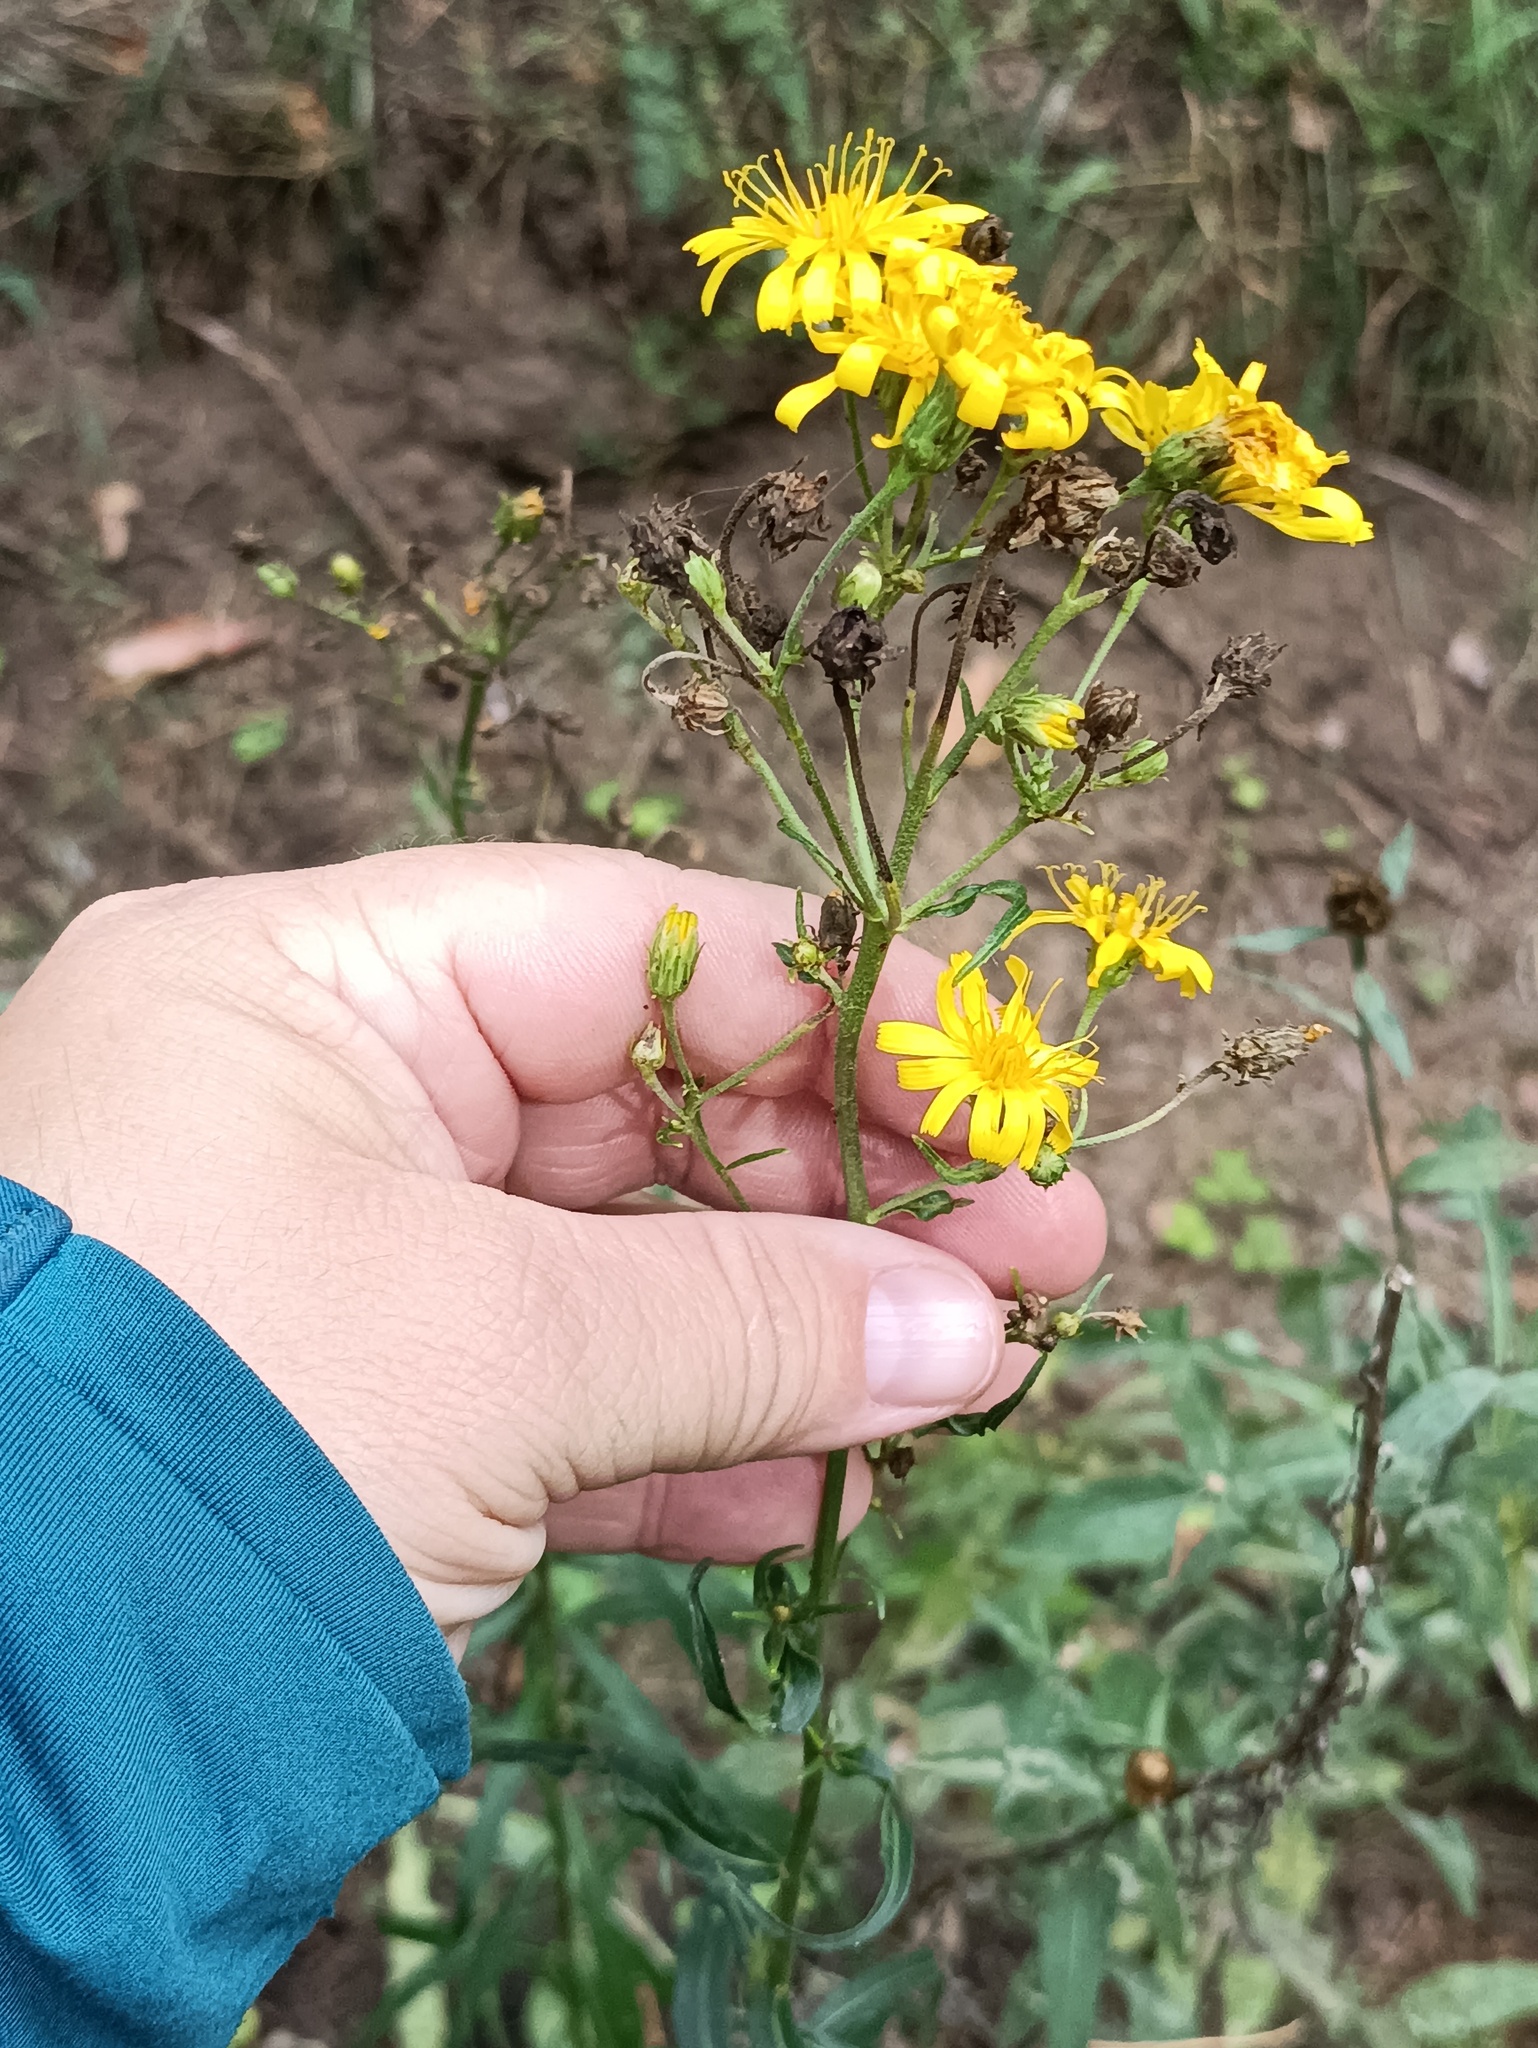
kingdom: Plantae
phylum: Tracheophyta
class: Magnoliopsida
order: Asterales
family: Asteraceae
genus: Hieracium
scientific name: Hieracium umbellatum
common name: Northern hawkweed
